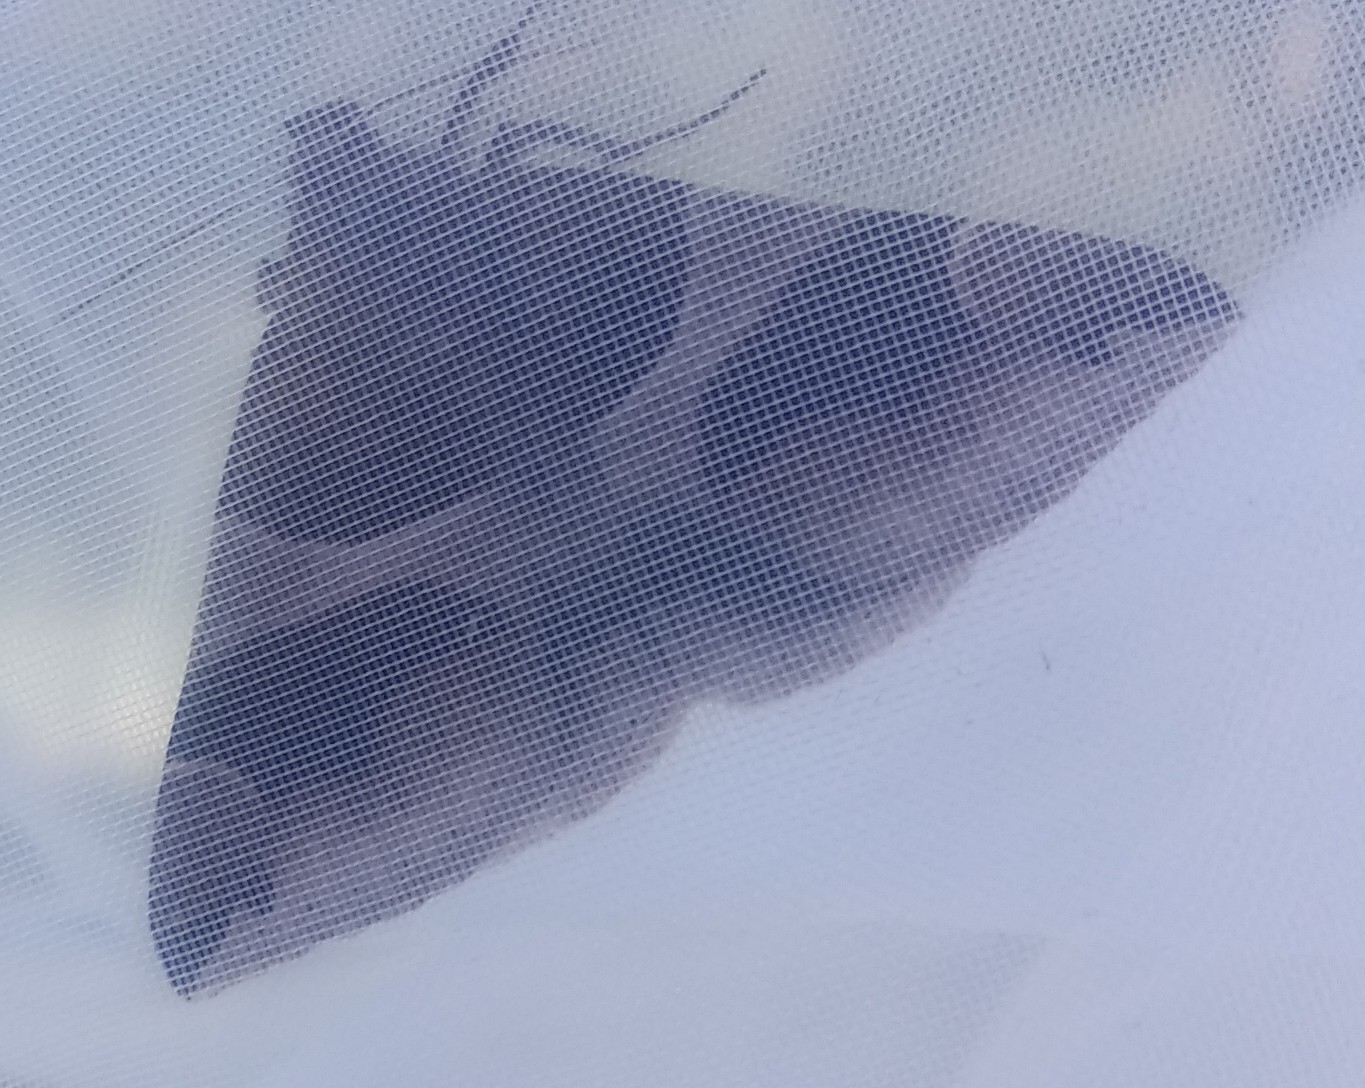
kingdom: Animalia
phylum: Arthropoda
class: Insecta
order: Lepidoptera
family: Erebidae
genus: Dysgonia
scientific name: Dysgonia algira
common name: Passenger
